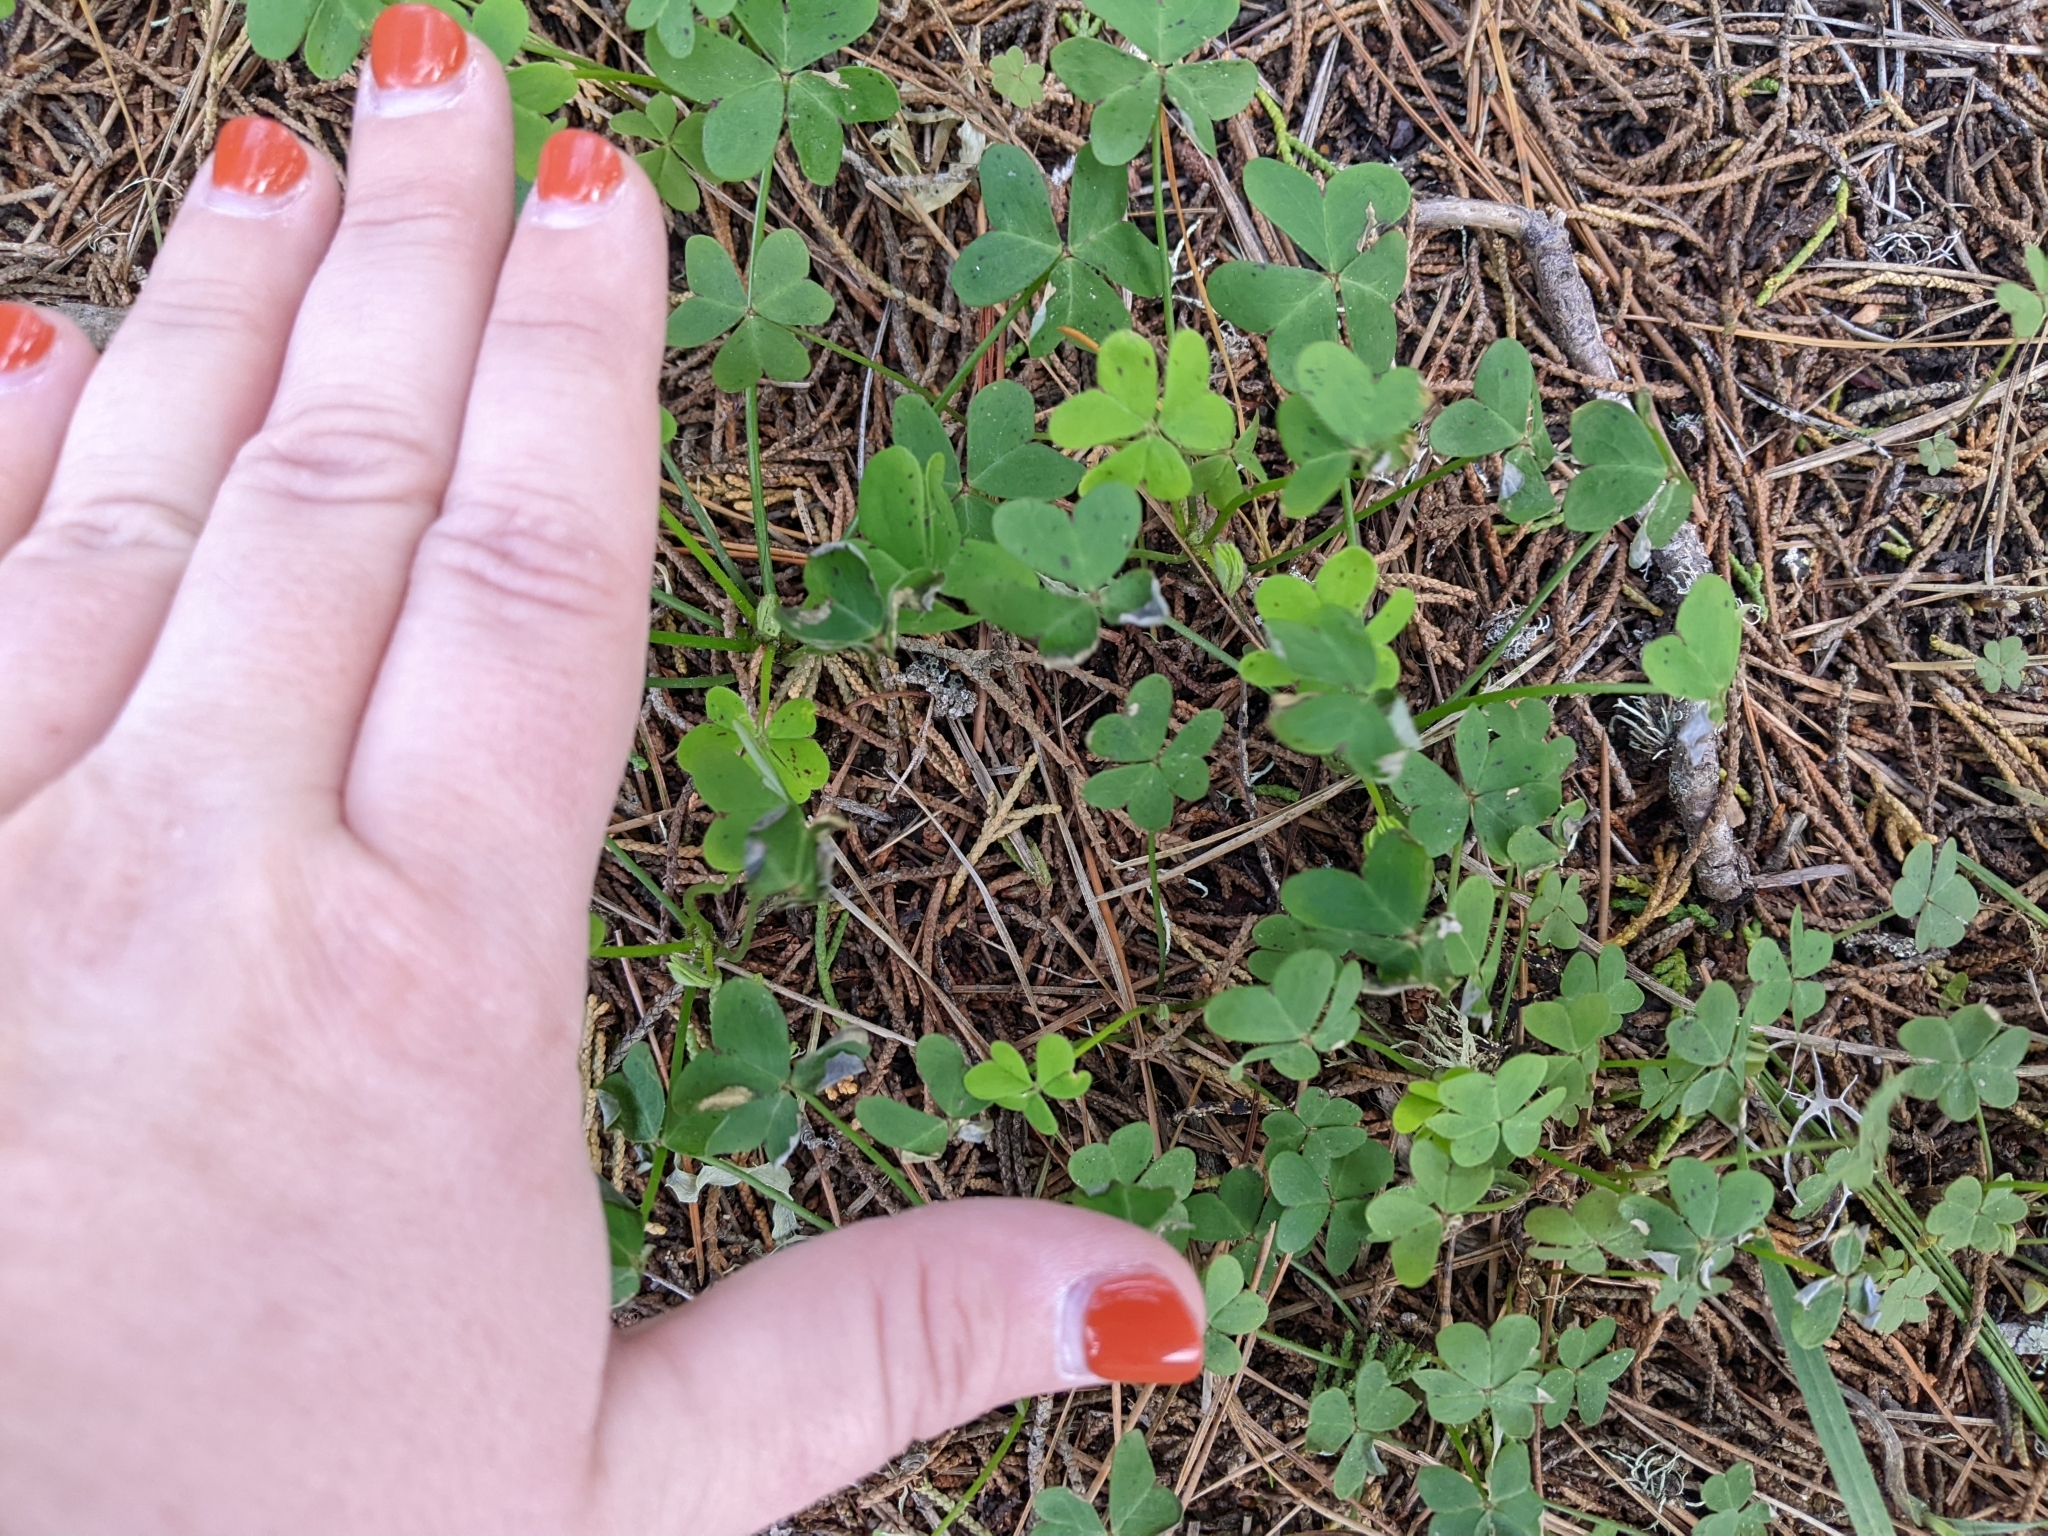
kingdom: Plantae
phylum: Tracheophyta
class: Magnoliopsida
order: Oxalidales
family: Oxalidaceae
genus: Oxalis
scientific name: Oxalis pes-caprae
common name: Bermuda-buttercup
